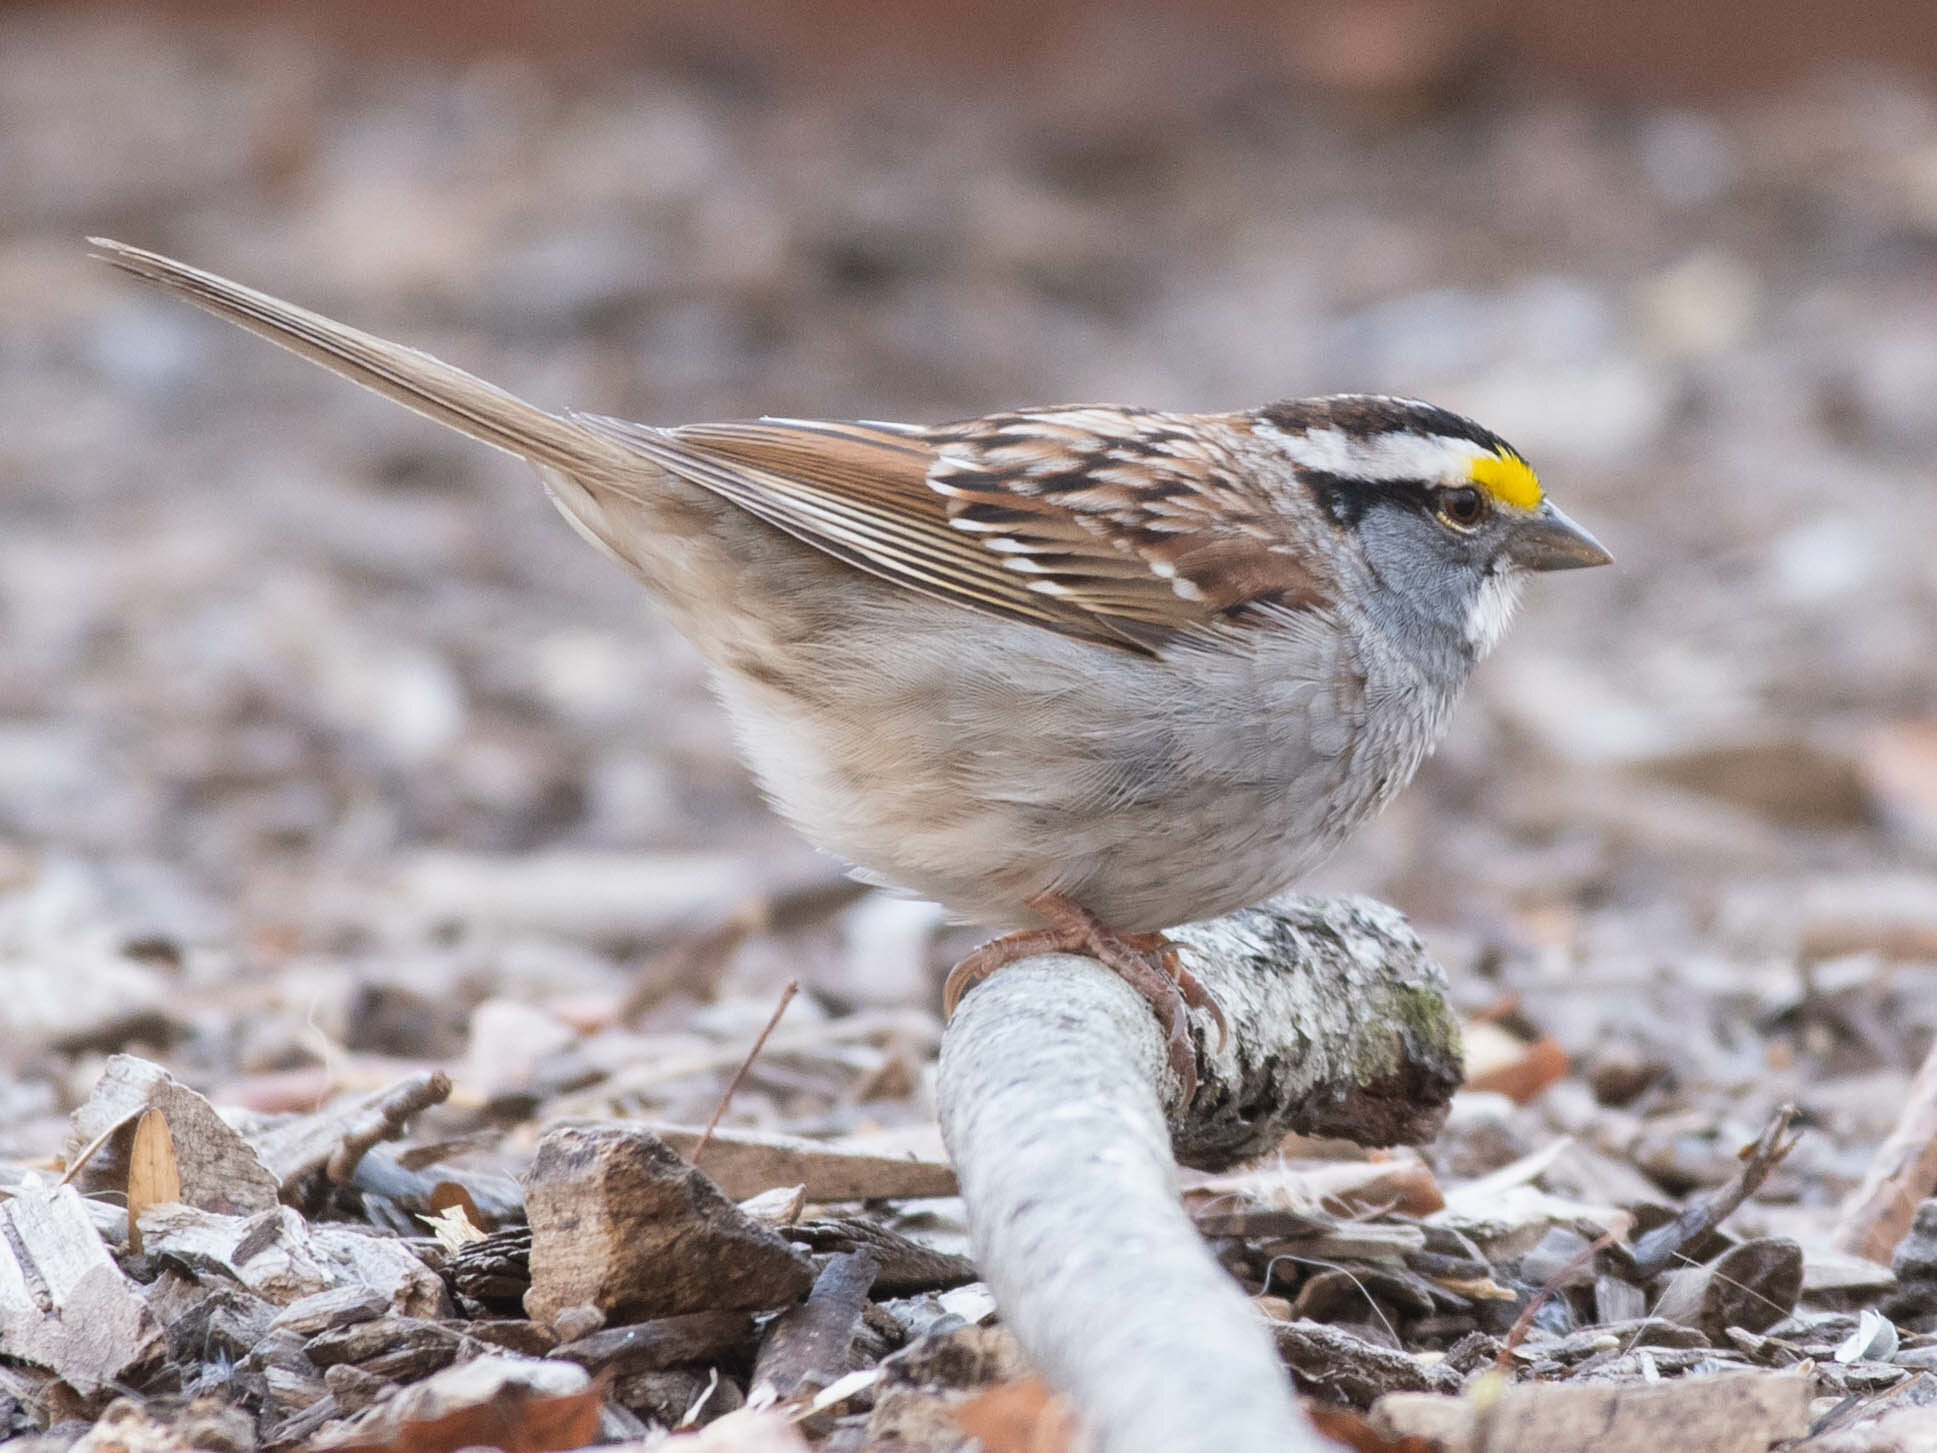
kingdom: Animalia
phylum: Chordata
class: Aves
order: Passeriformes
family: Passerellidae
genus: Zonotrichia
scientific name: Zonotrichia albicollis
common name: White-throated sparrow
